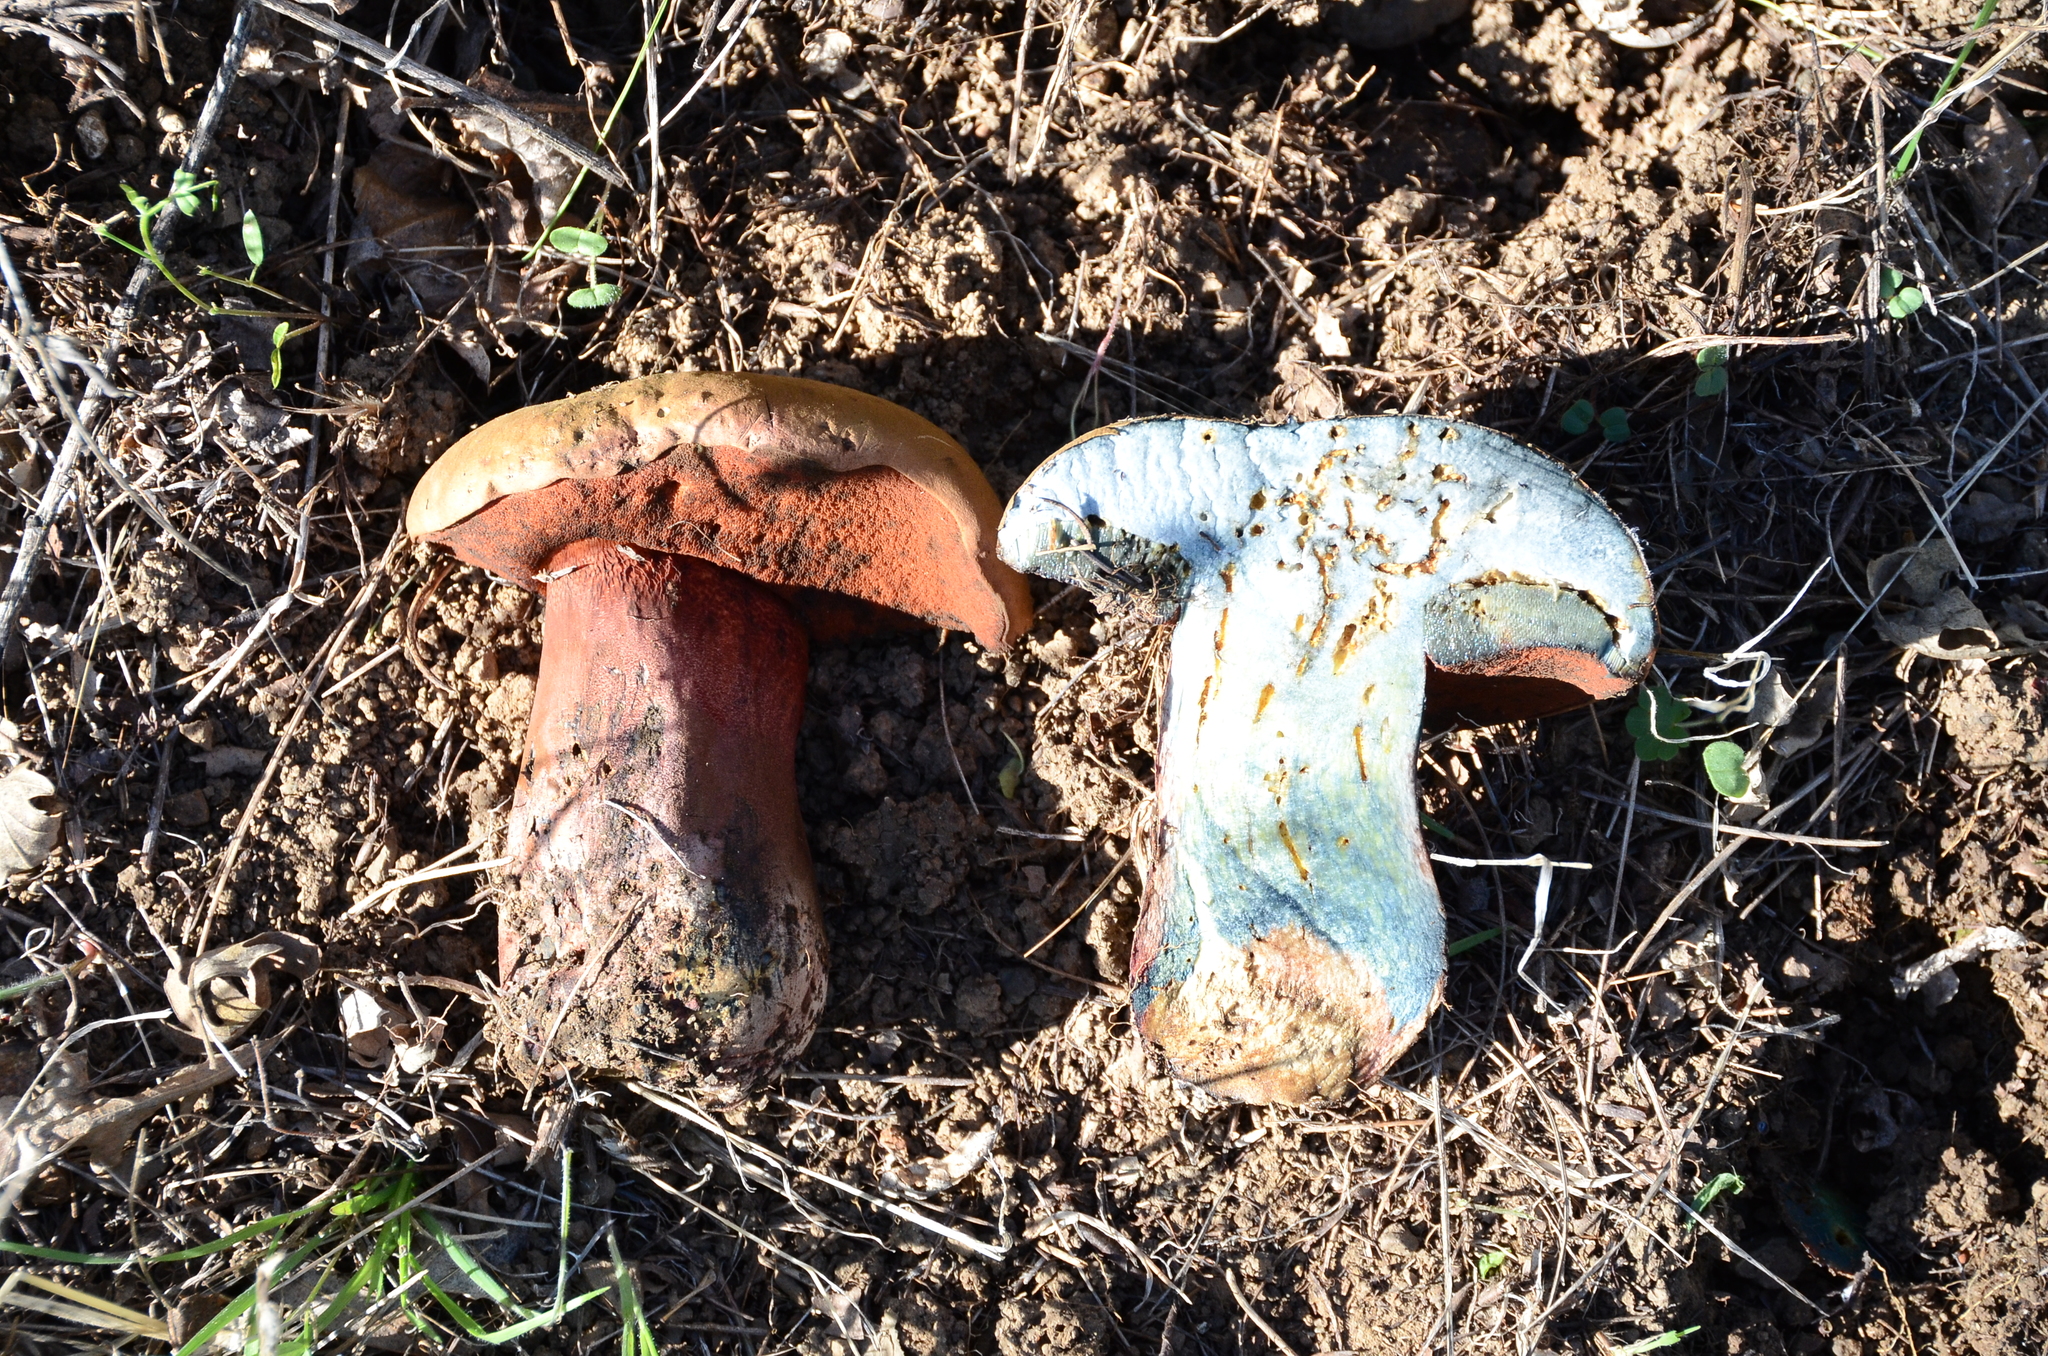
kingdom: Fungi
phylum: Basidiomycota
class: Agaricomycetes
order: Boletales
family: Boletaceae
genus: Suillellus
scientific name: Suillellus amygdalinus
